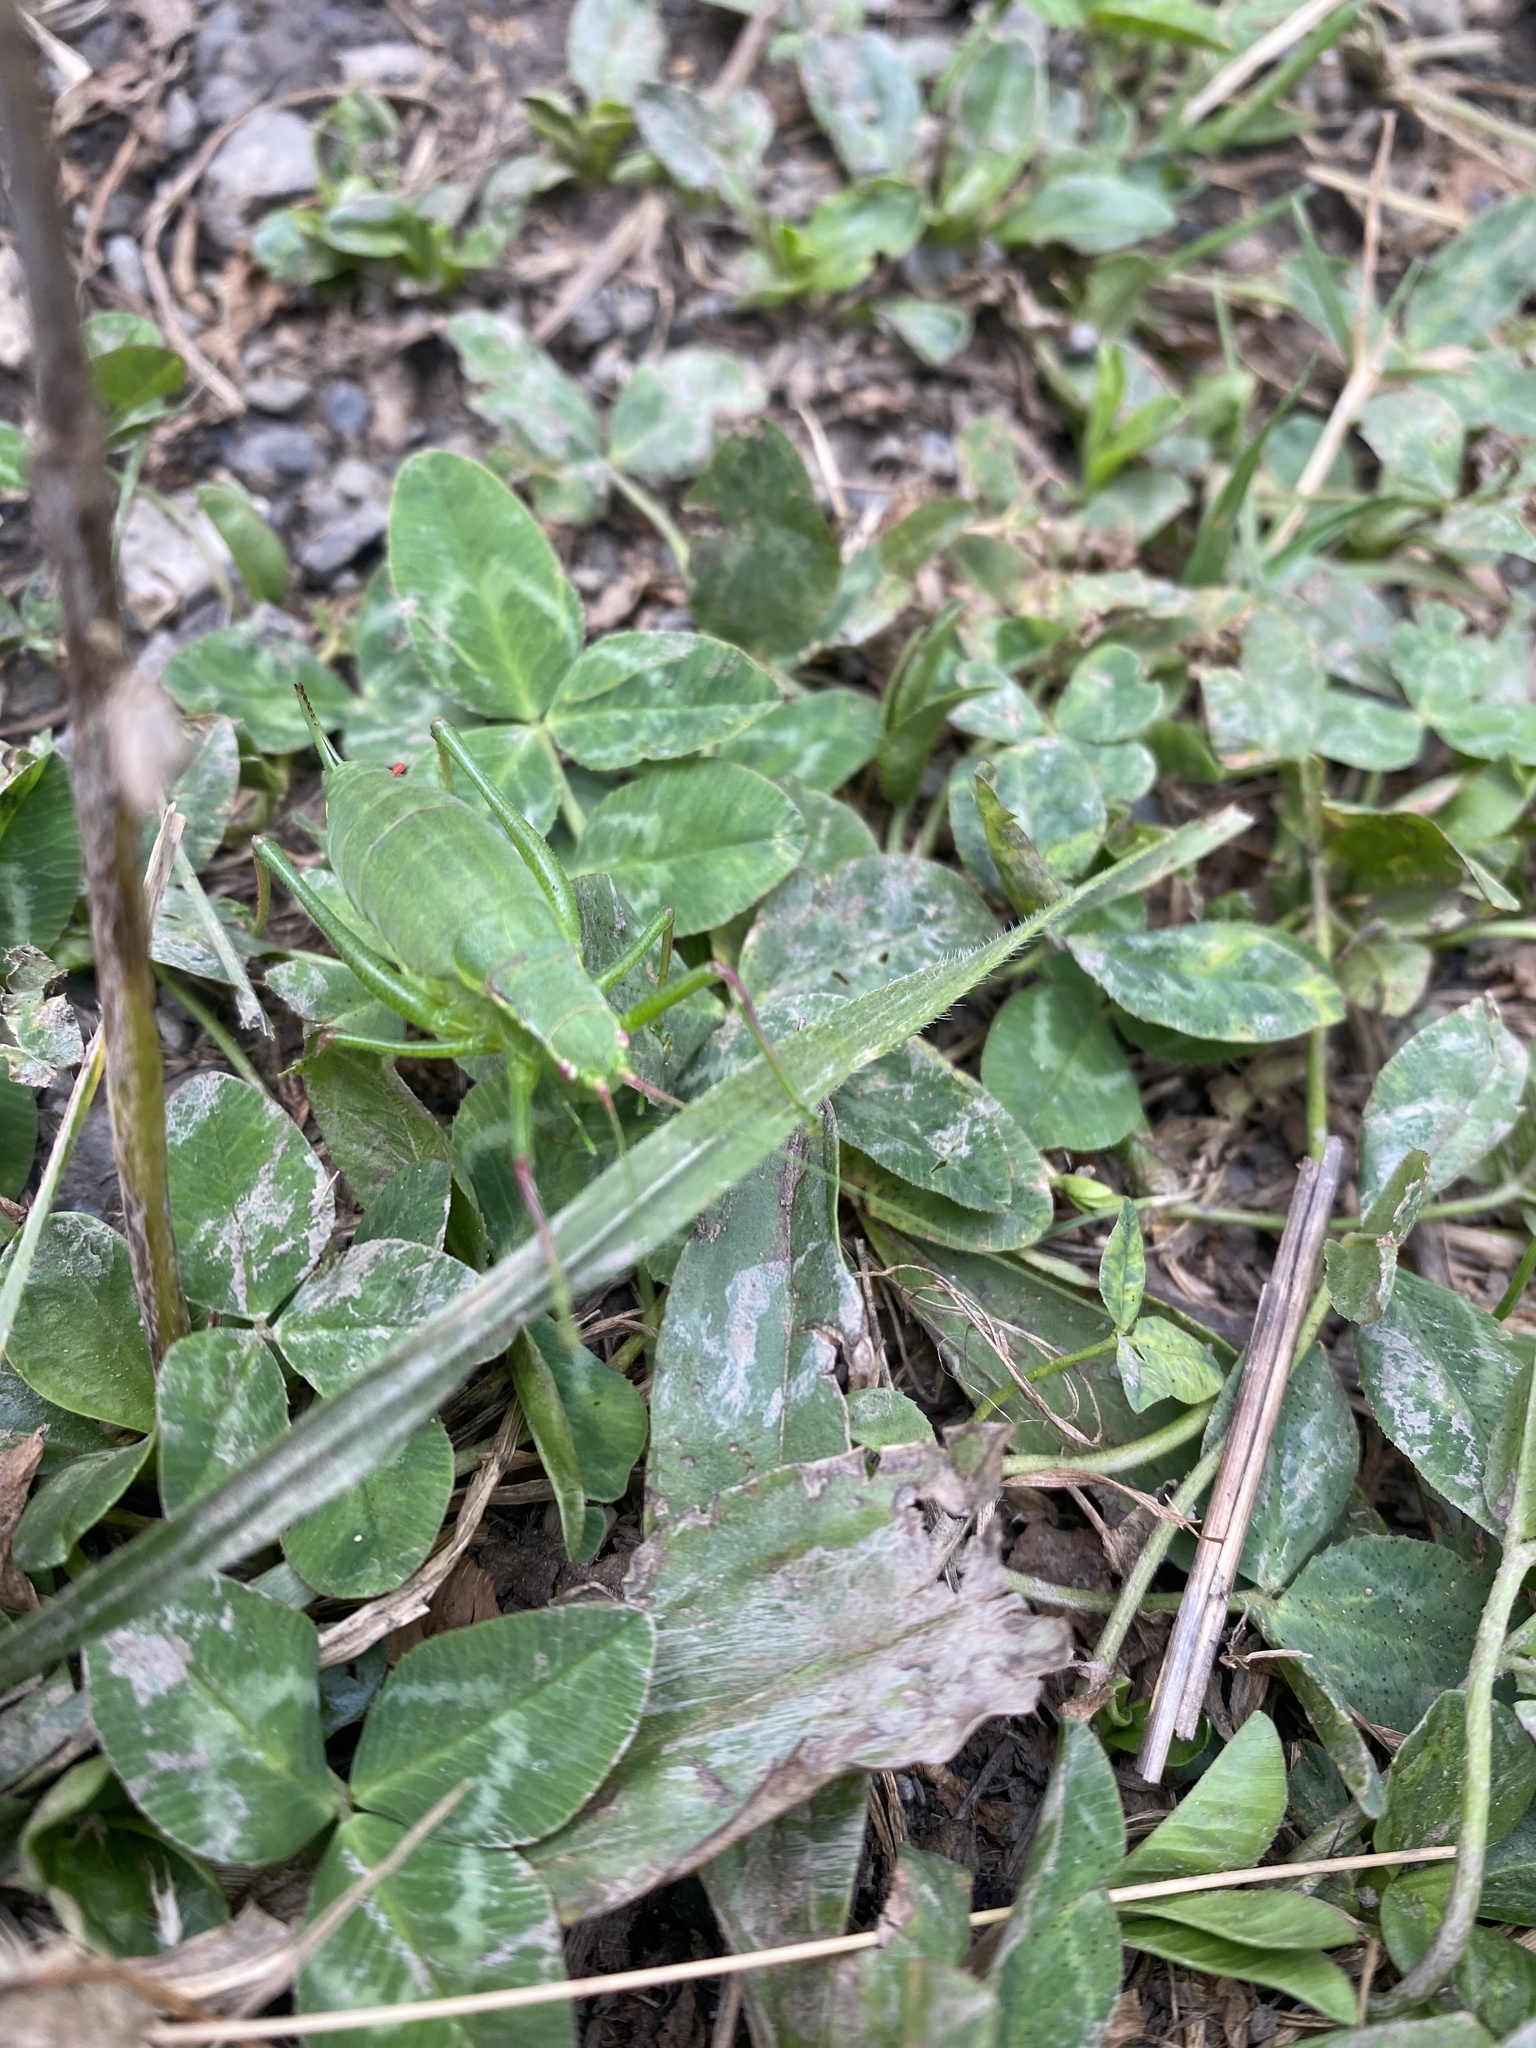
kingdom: Animalia
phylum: Arthropoda
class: Insecta
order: Orthoptera
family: Tettigoniidae
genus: Isophya
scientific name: Isophya
